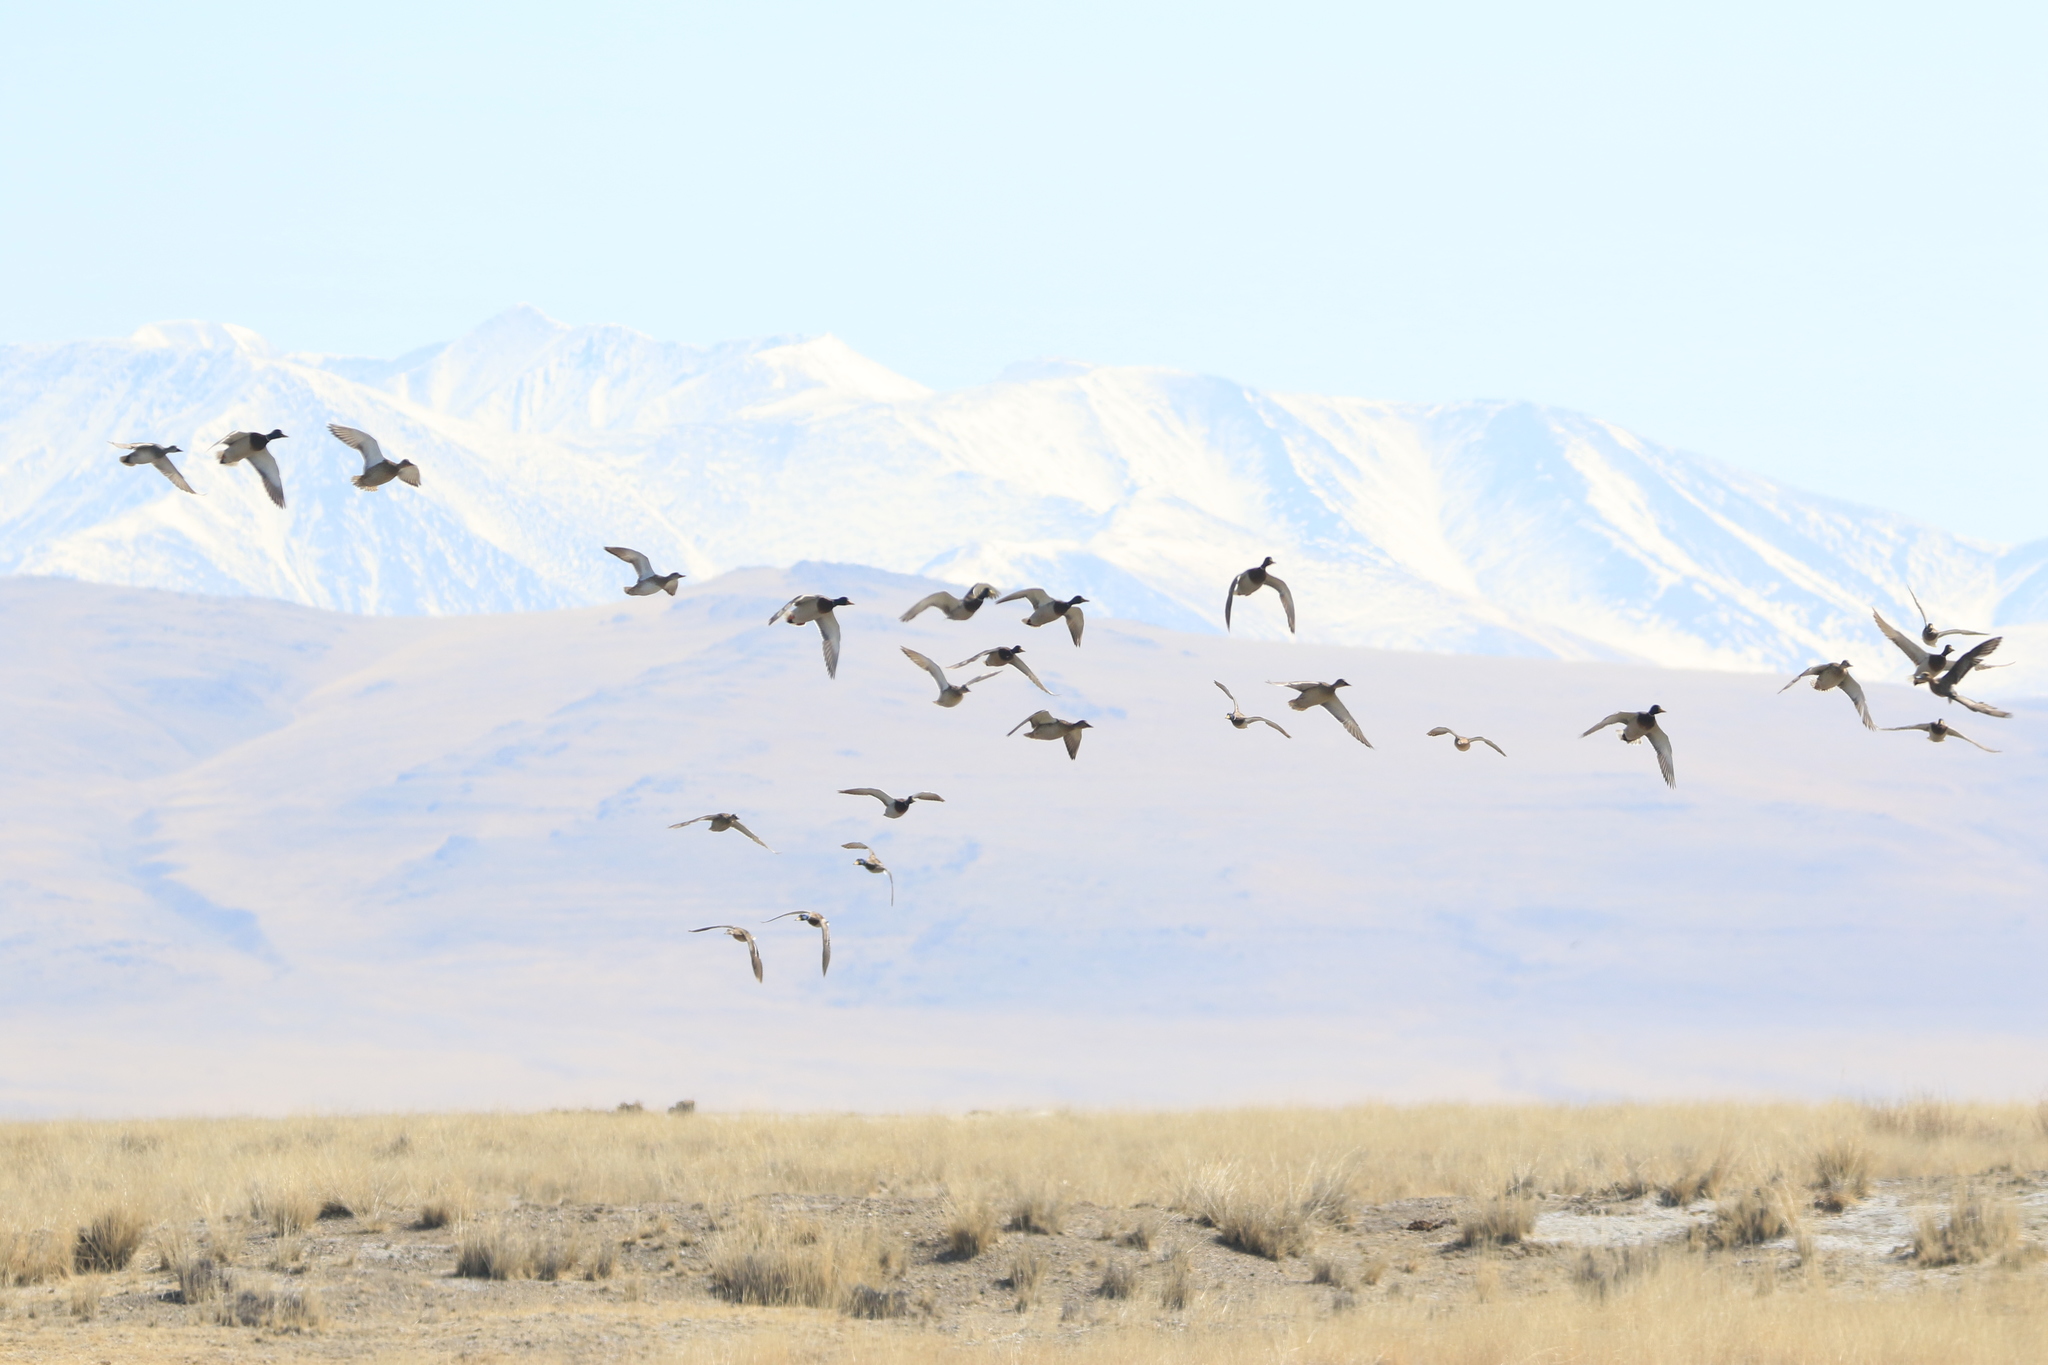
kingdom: Animalia
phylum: Chordata
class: Aves
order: Anseriformes
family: Anatidae
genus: Anas
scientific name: Anas platyrhynchos
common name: Mallard
